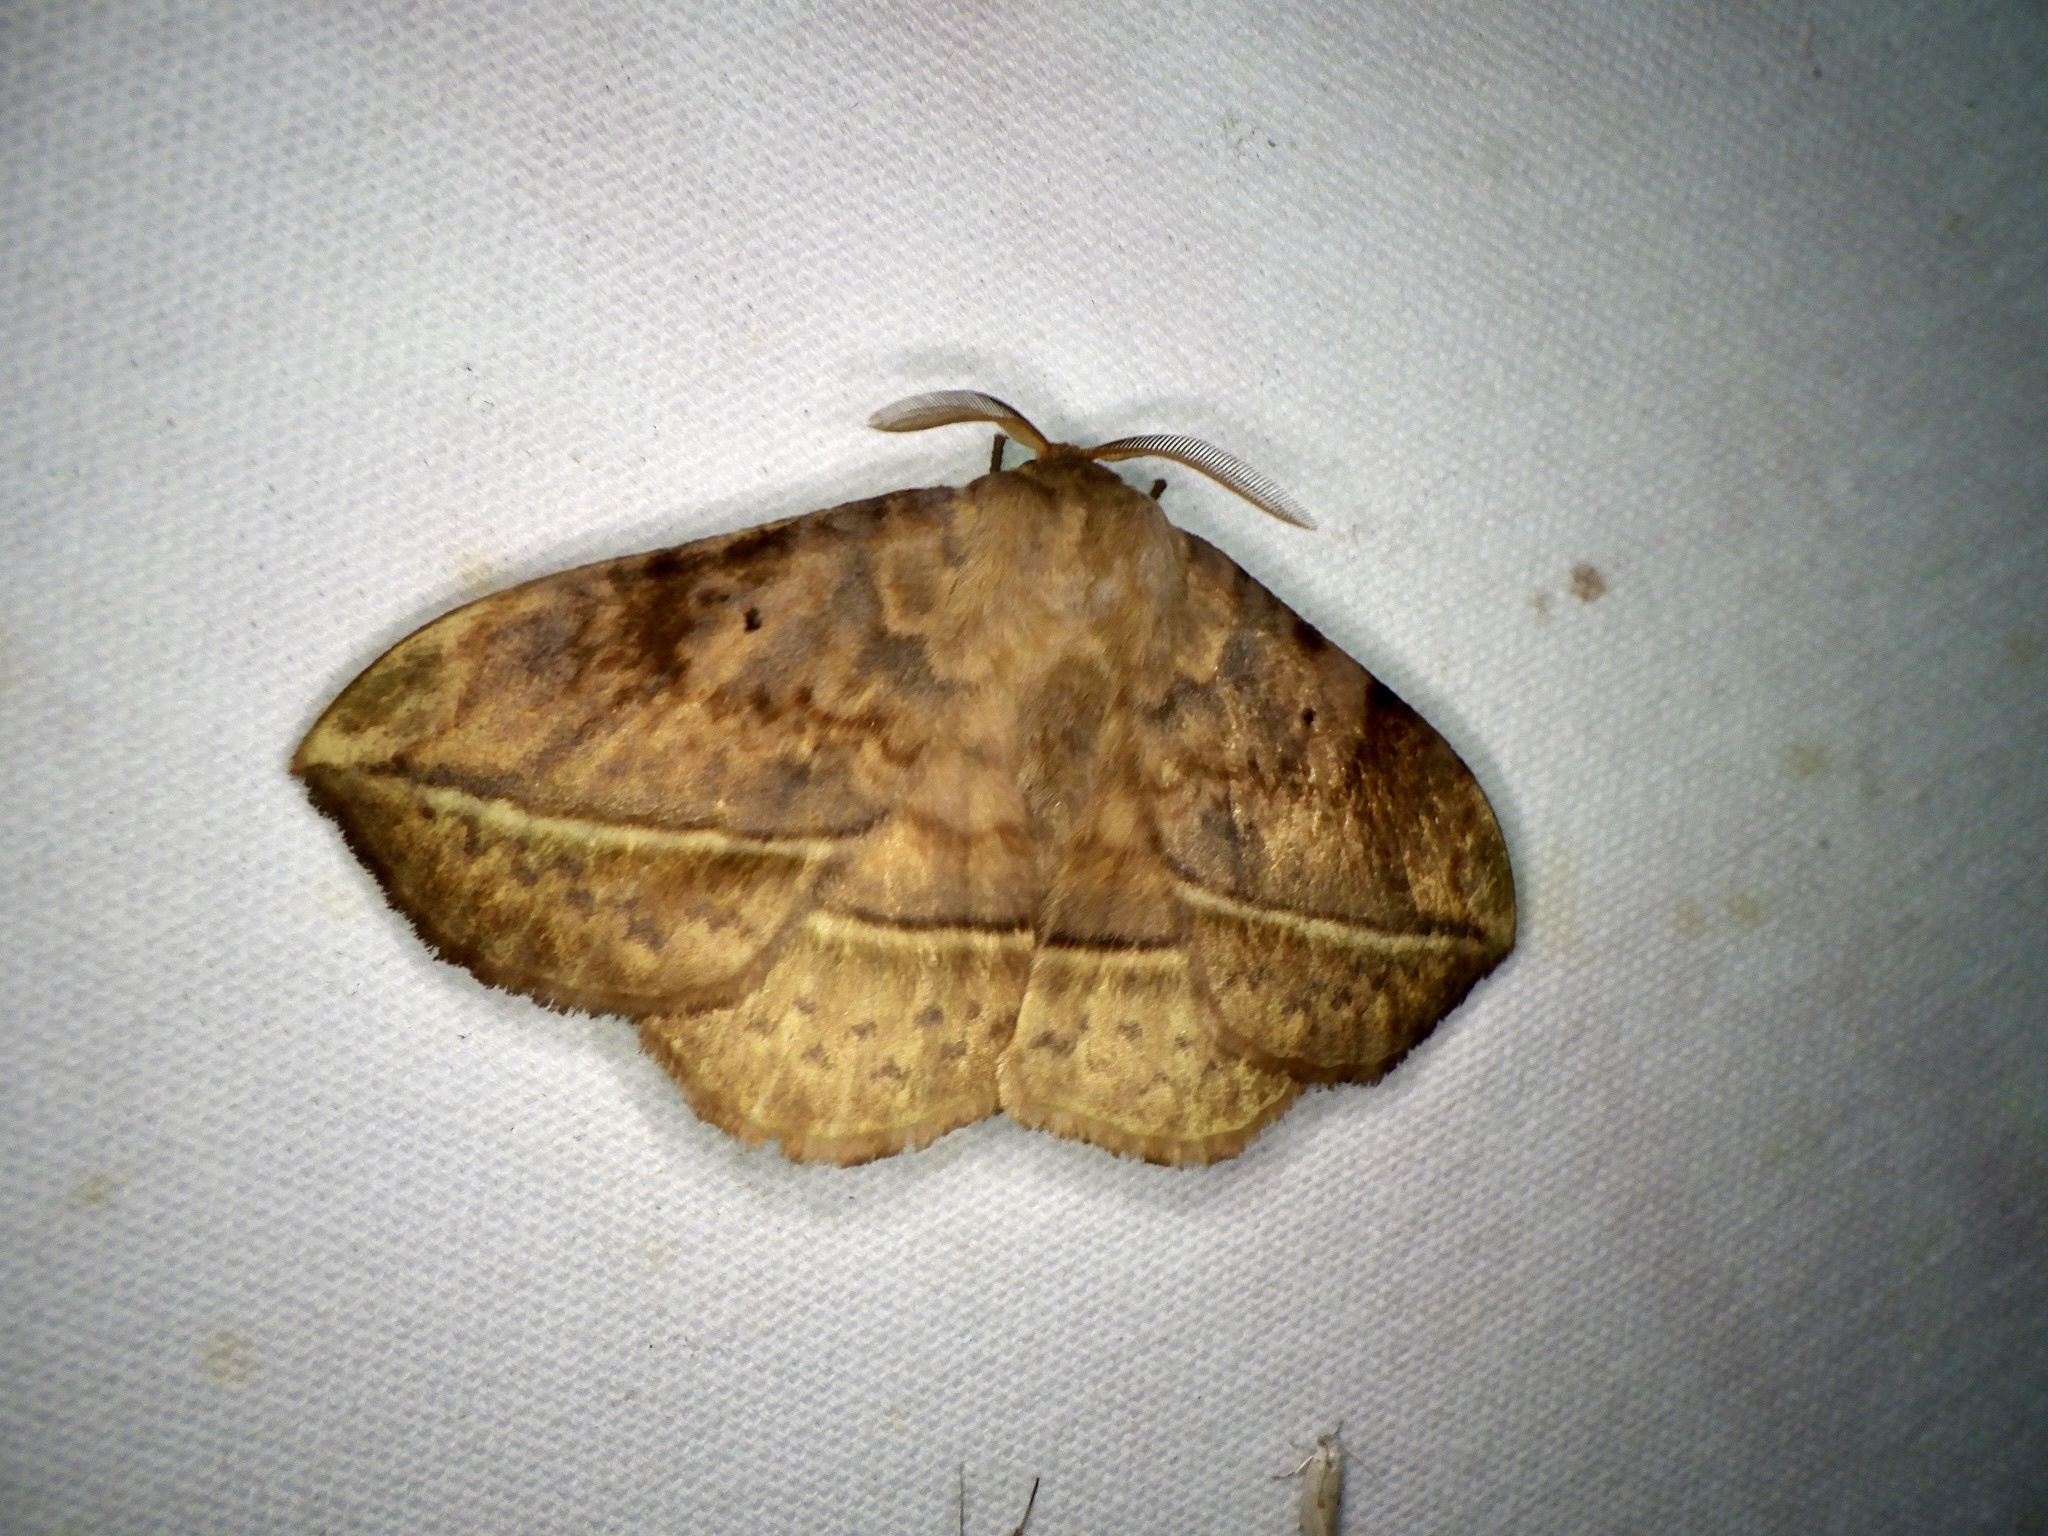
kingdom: Animalia
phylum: Arthropoda
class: Insecta
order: Lepidoptera
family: Eupterotidae
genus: Apha
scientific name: Apha aequalis
